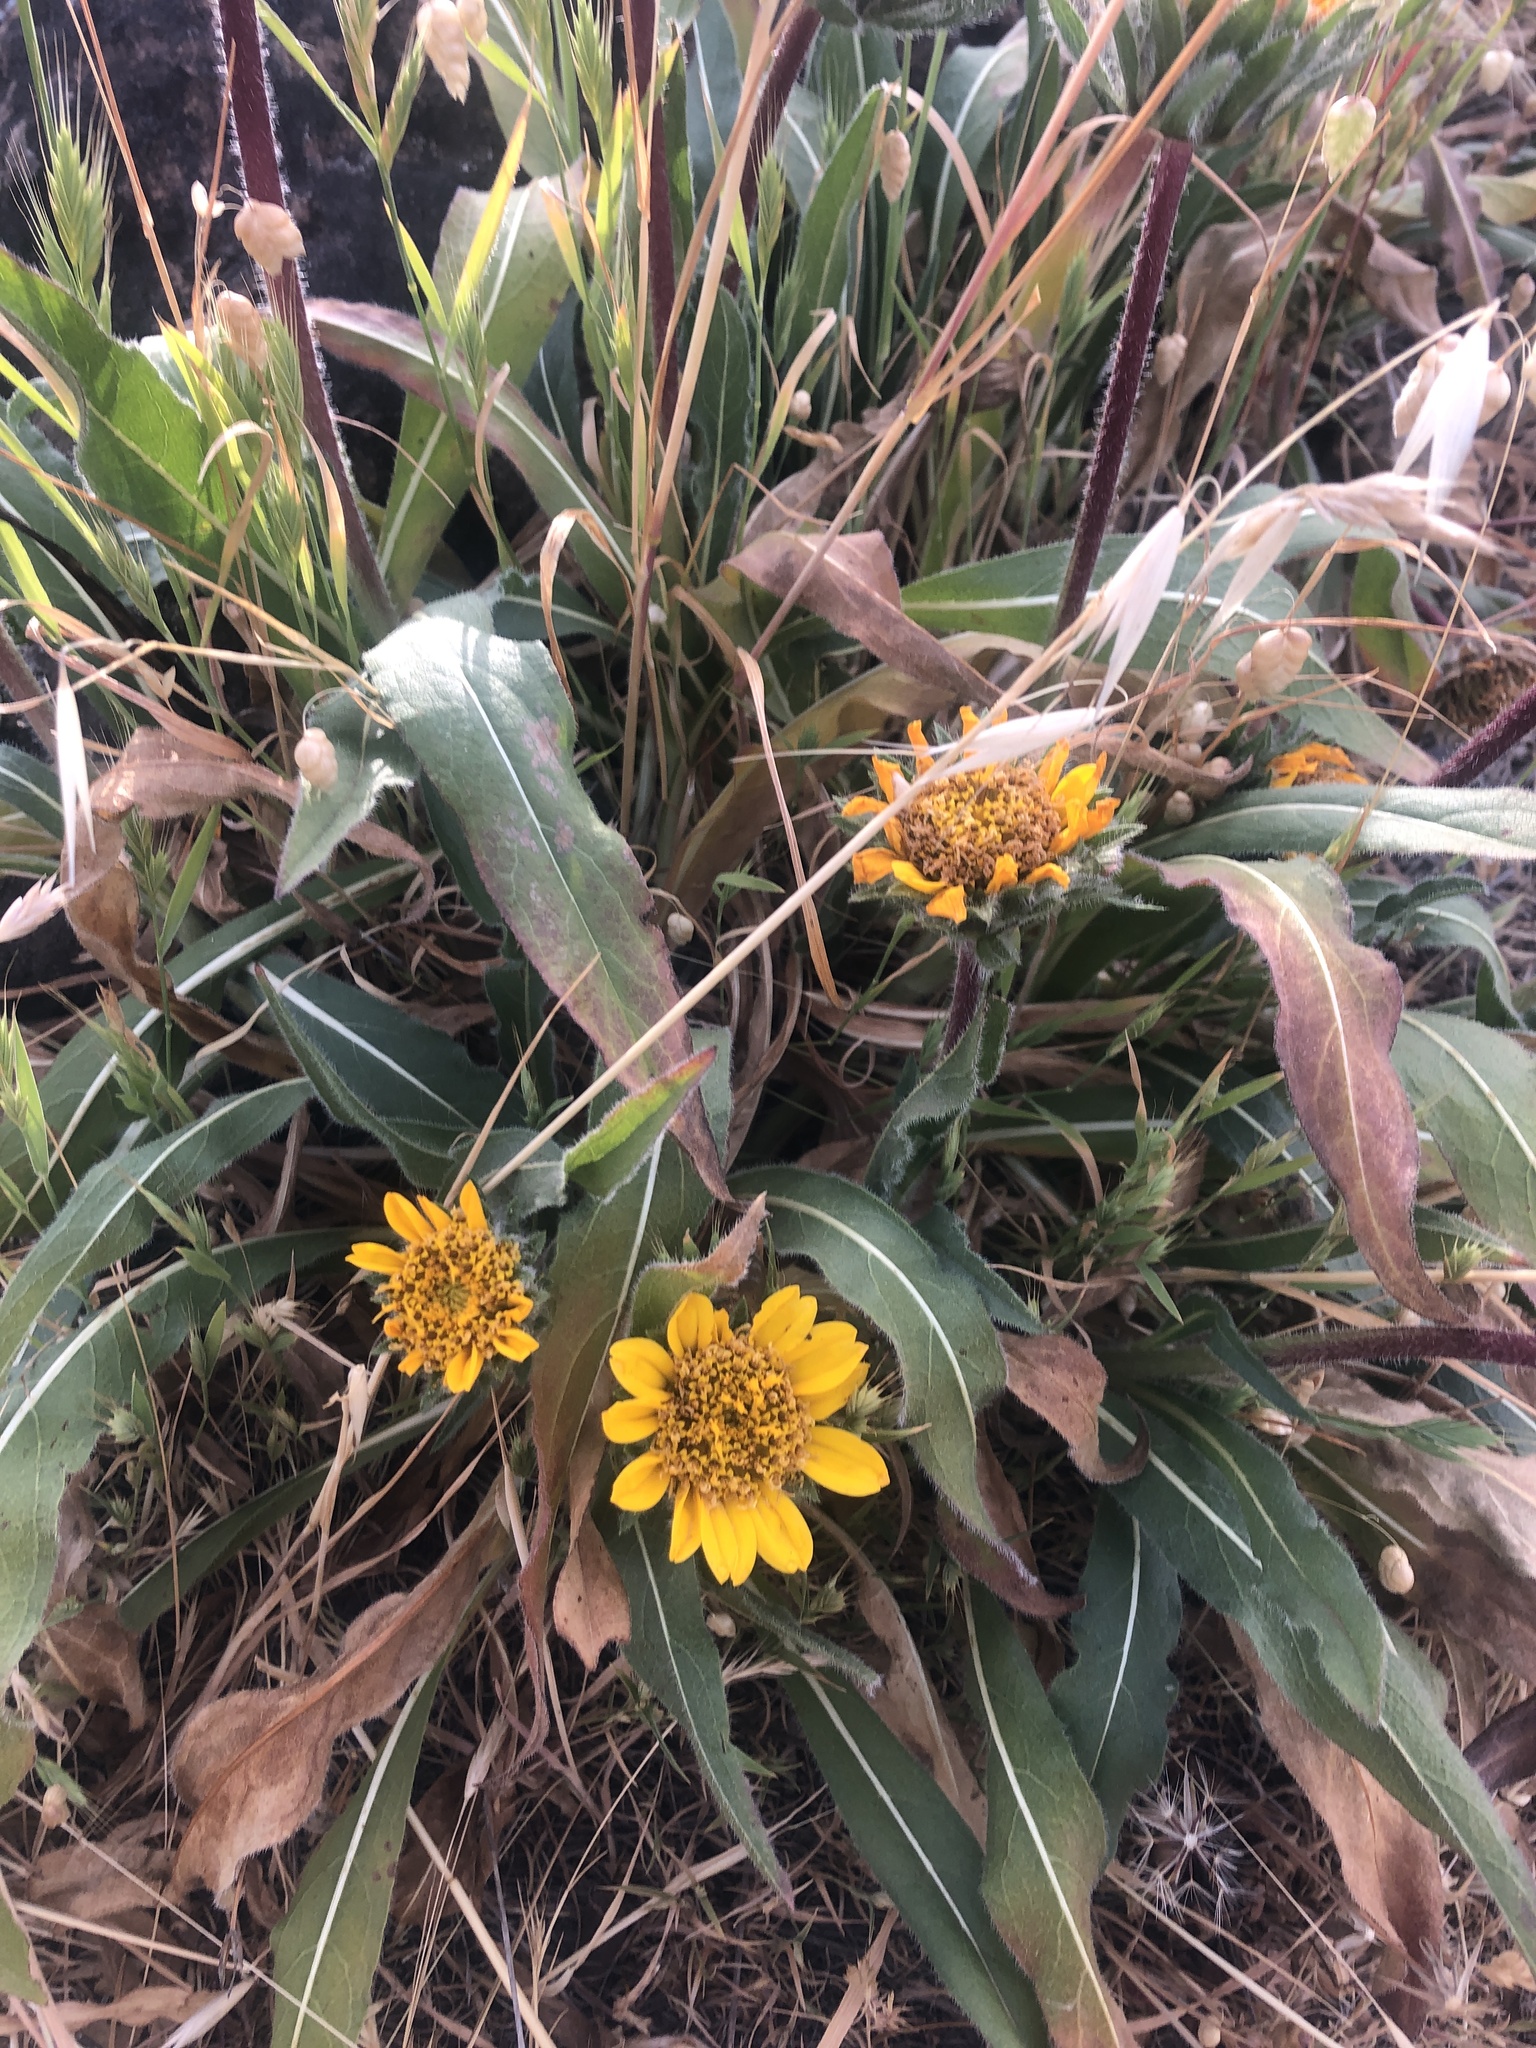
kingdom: Plantae
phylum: Tracheophyta
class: Magnoliopsida
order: Asterales
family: Asteraceae
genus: Wyethia
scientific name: Wyethia angustifolia
